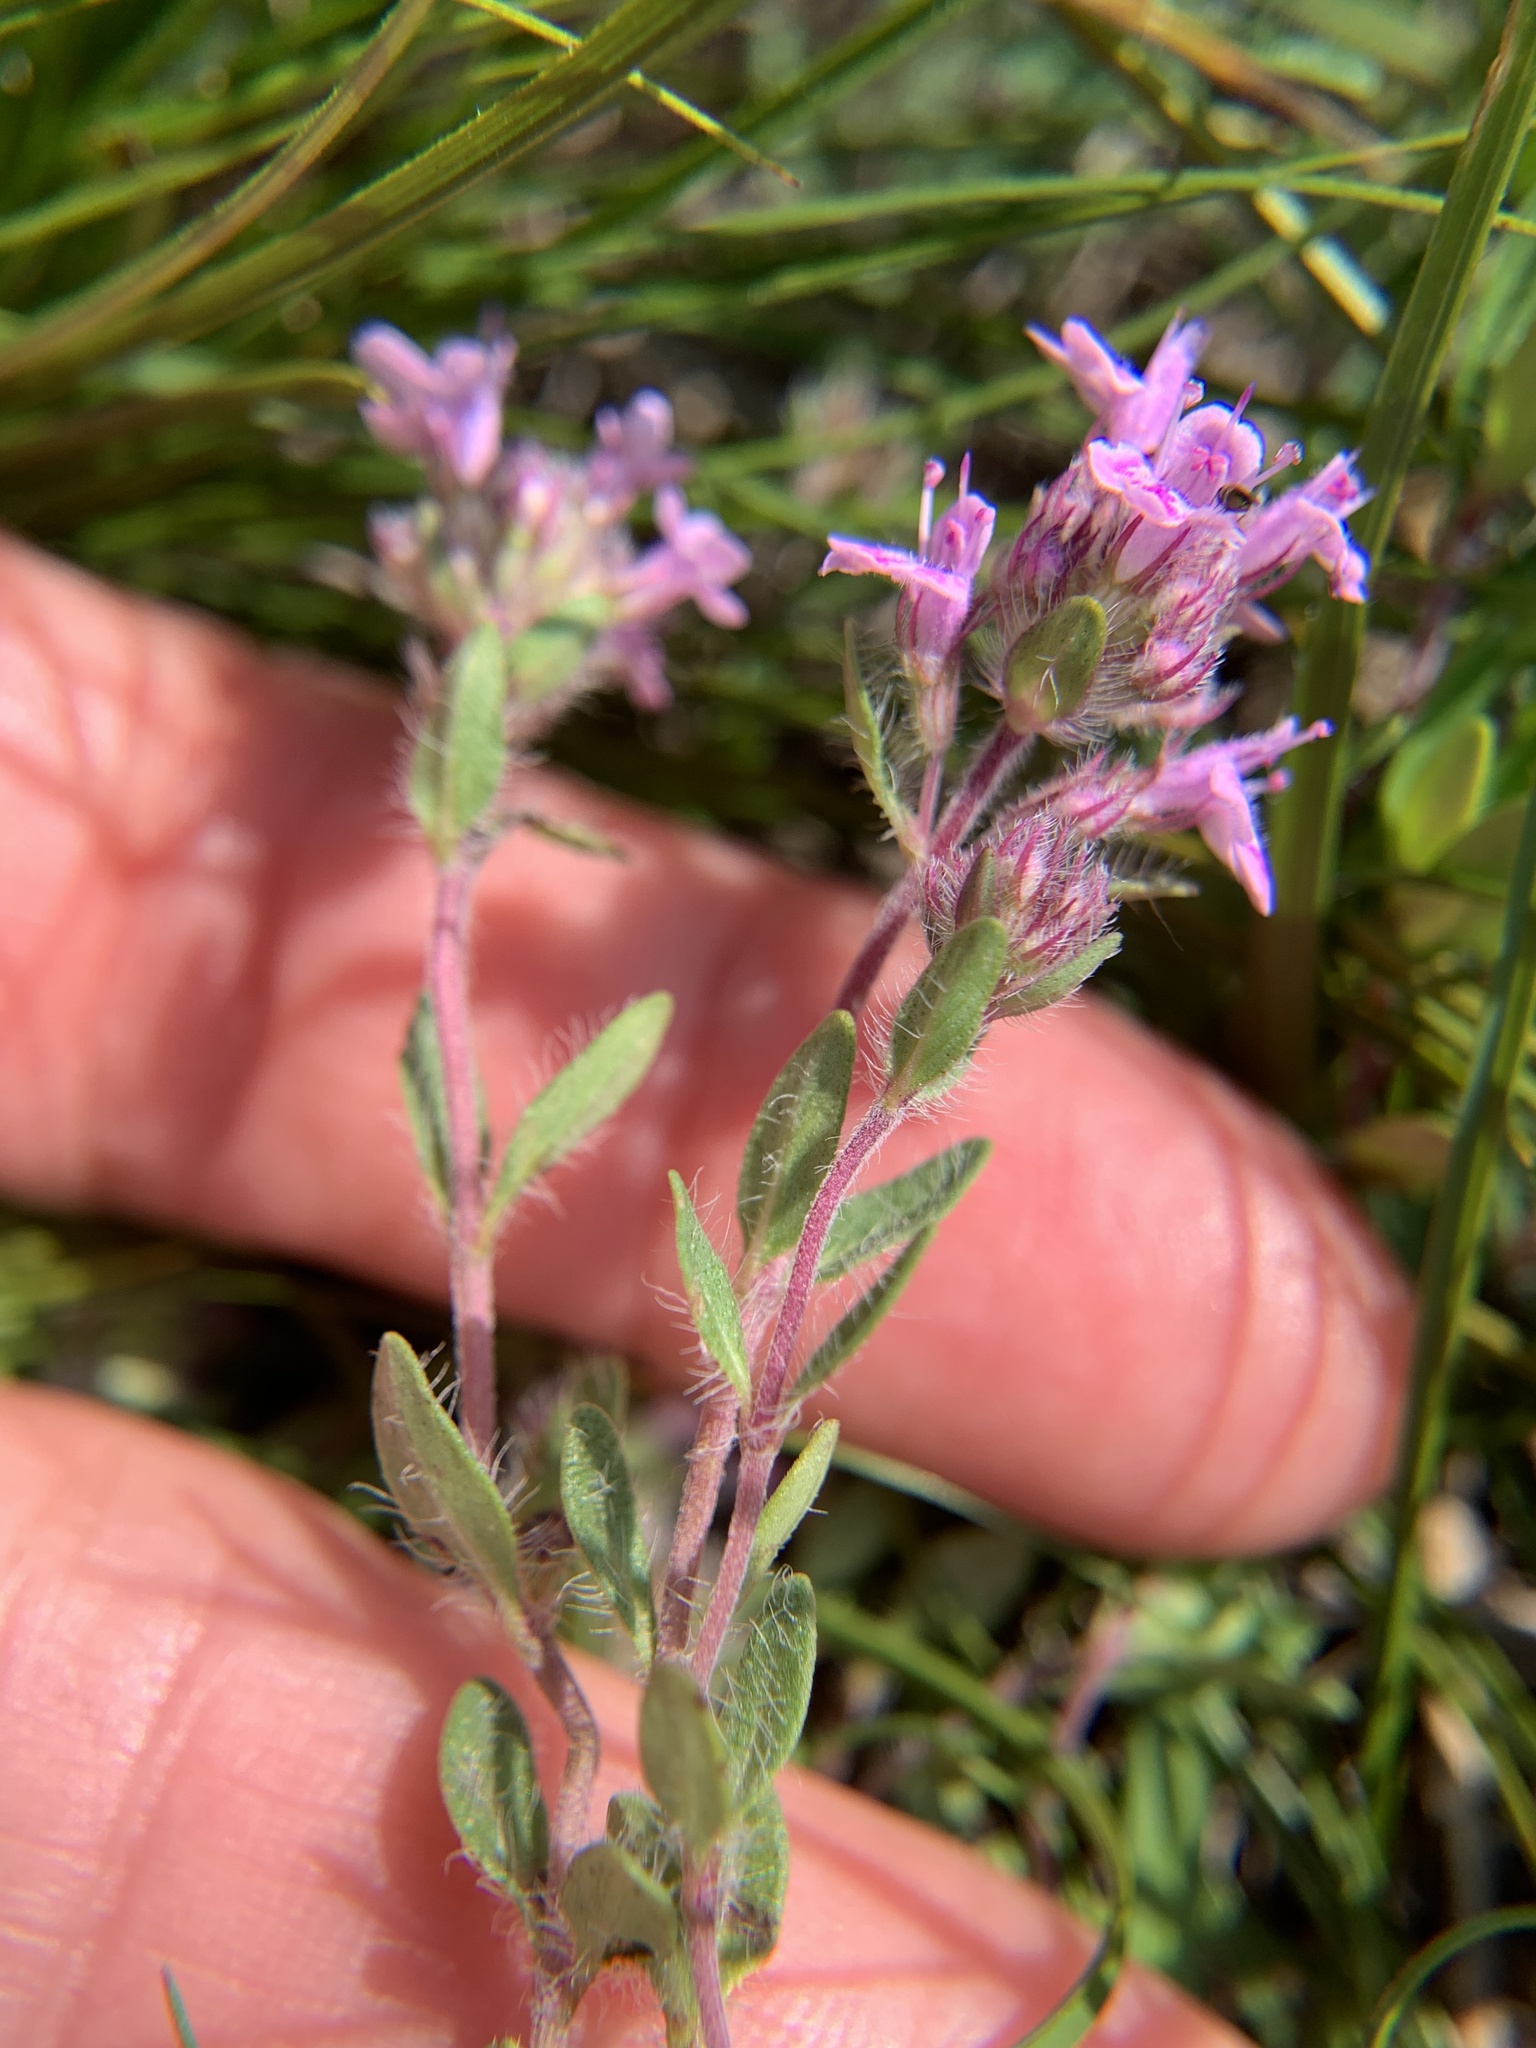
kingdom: Plantae
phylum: Tracheophyta
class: Magnoliopsida
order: Lamiales
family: Lamiaceae
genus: Thymus
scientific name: Thymus pannonicus
